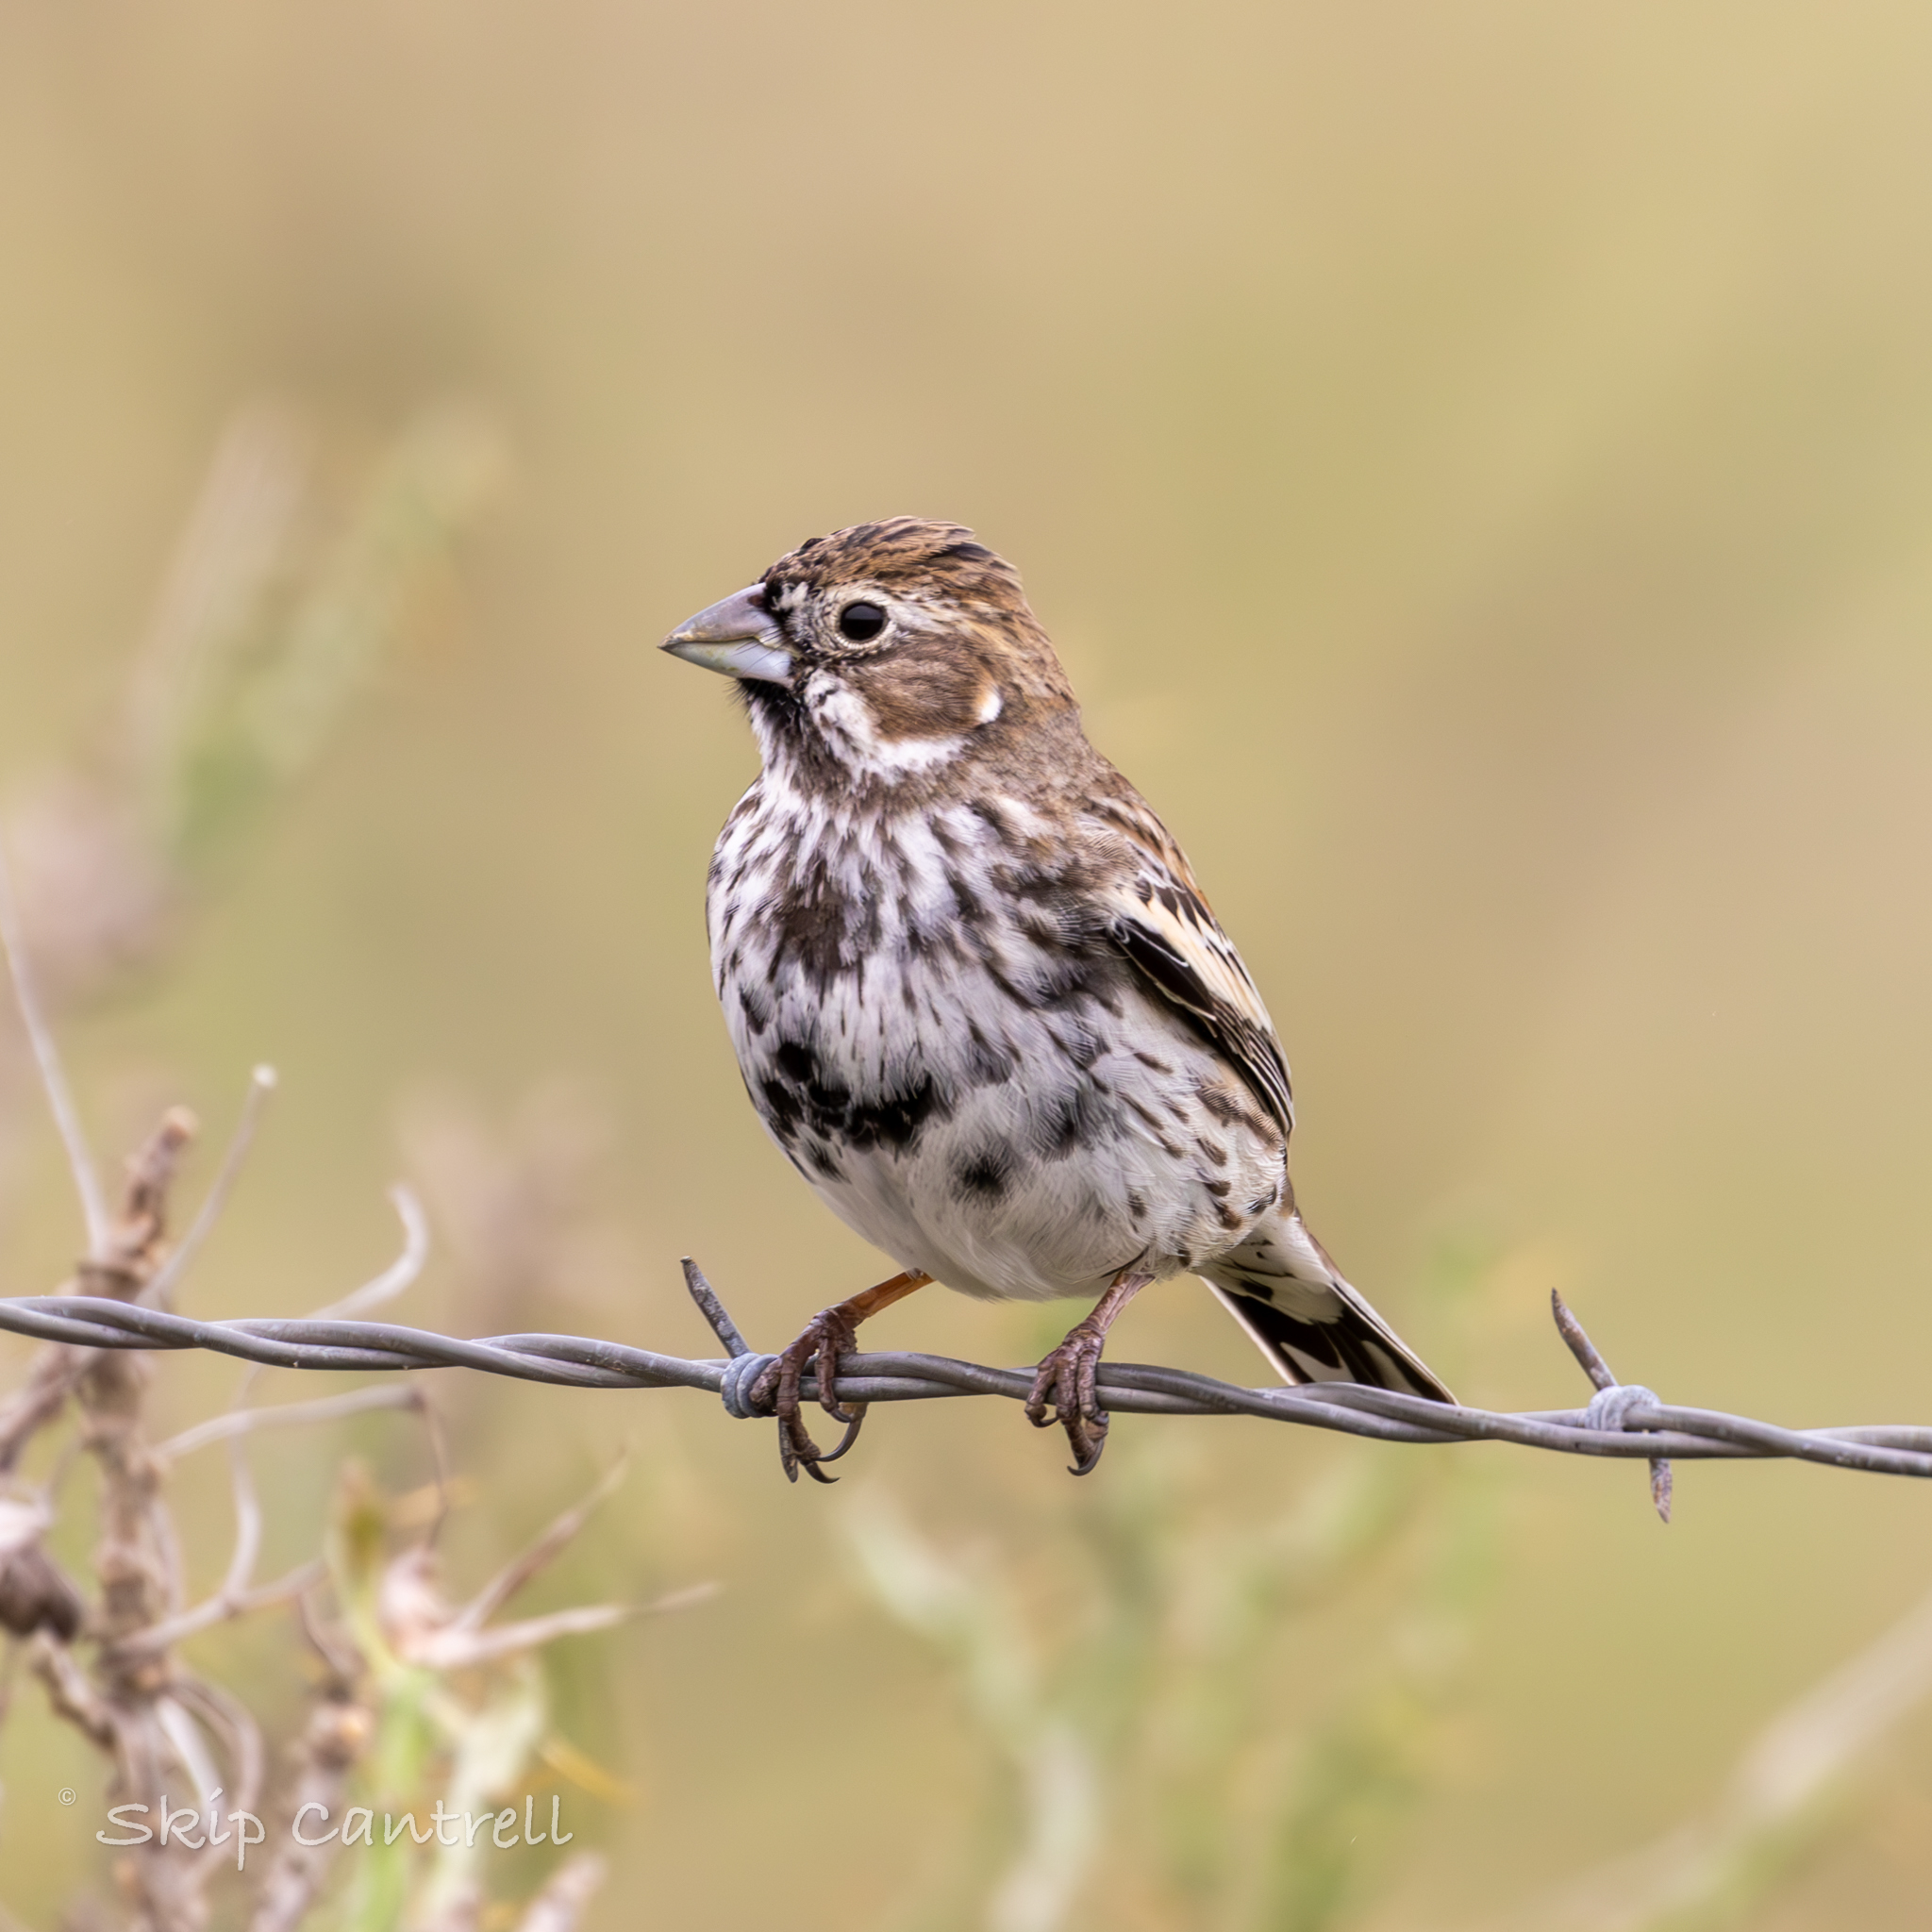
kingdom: Animalia
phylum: Chordata
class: Aves
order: Passeriformes
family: Passerellidae
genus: Calamospiza
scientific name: Calamospiza melanocorys
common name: Lark bunting
